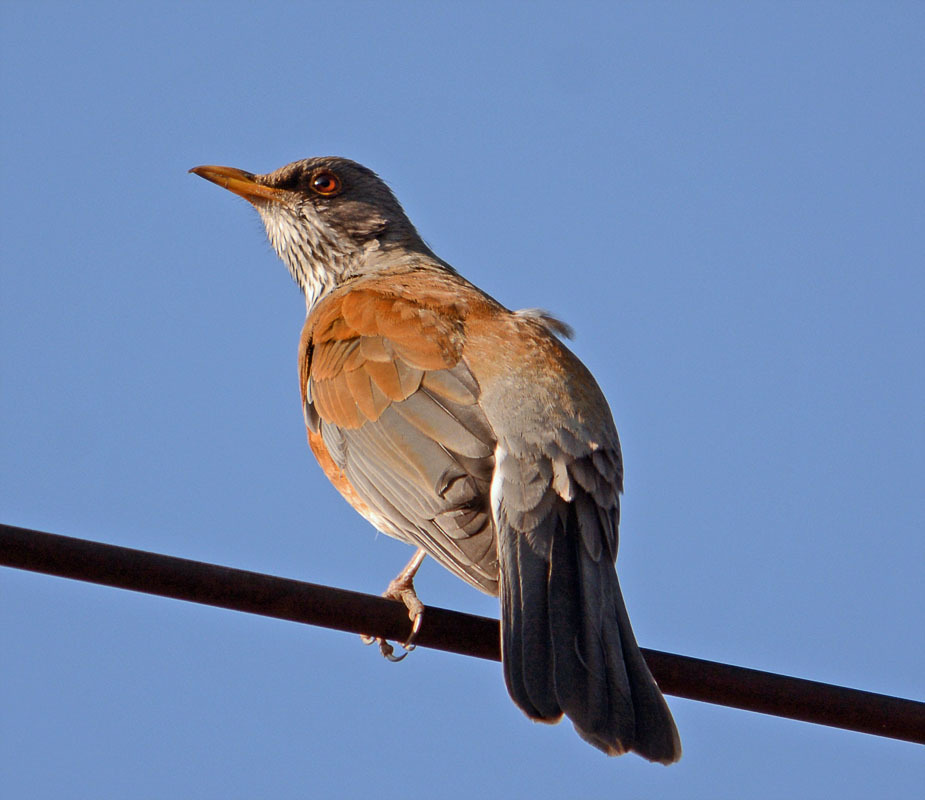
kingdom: Animalia
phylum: Chordata
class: Aves
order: Passeriformes
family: Turdidae
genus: Turdus
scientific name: Turdus rufopalliatus
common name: Rufous-backed robin
